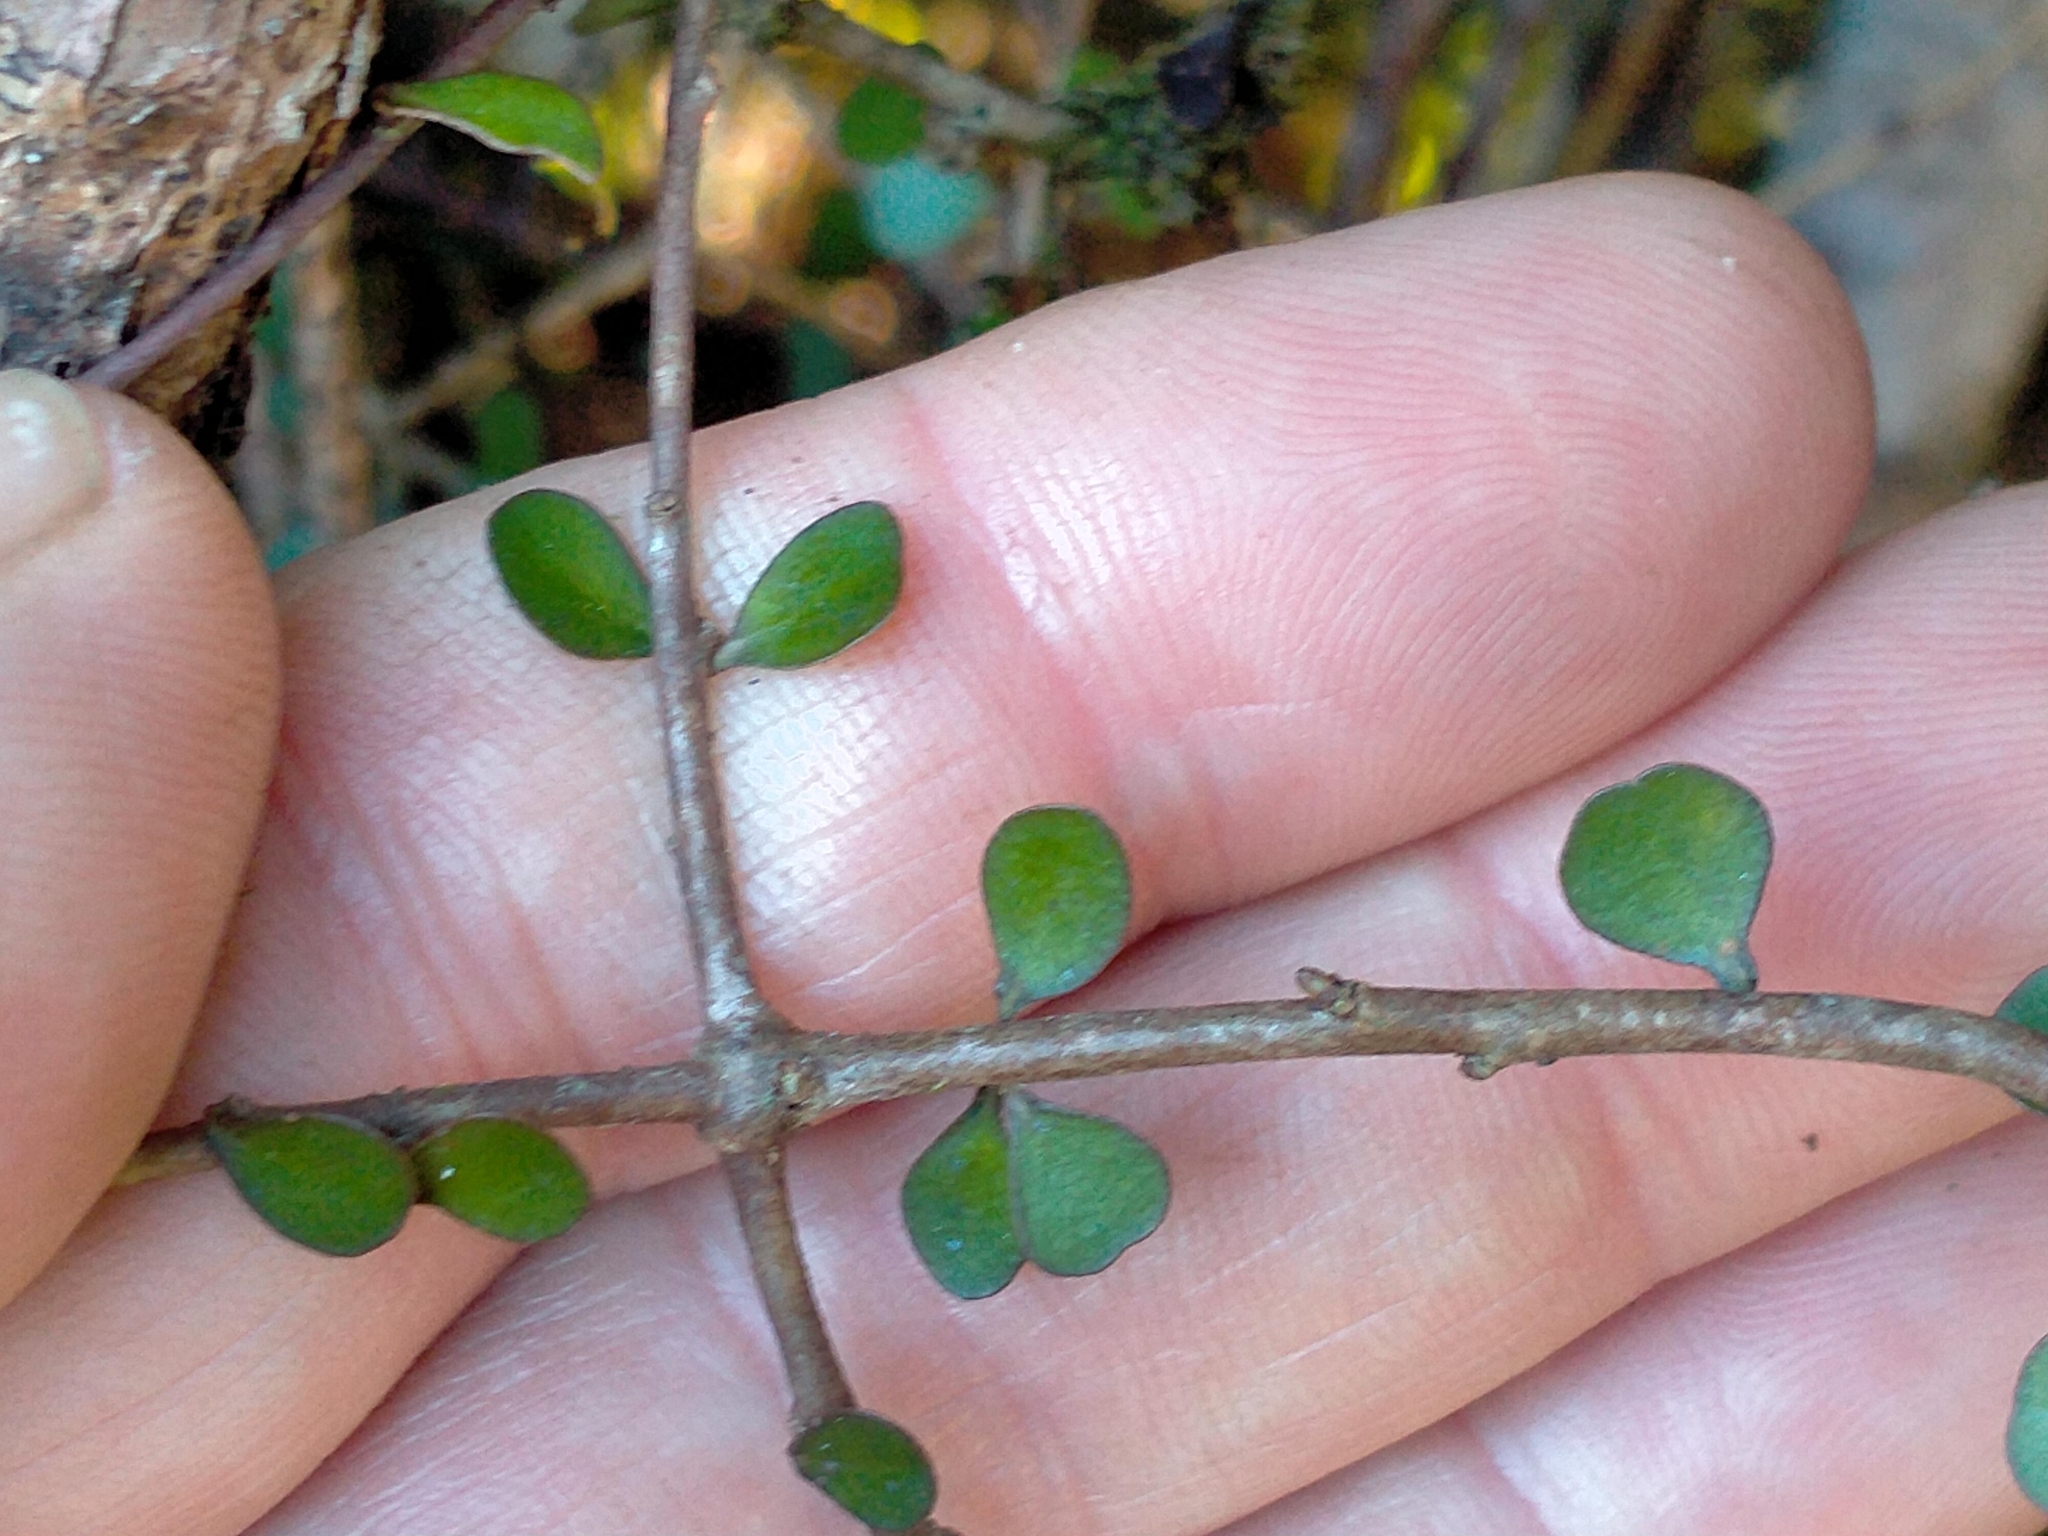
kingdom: Plantae
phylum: Tracheophyta
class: Magnoliopsida
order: Apiales
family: Pittosporaceae
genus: Pittosporum
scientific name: Pittosporum obcordatum
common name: Heart-leaved kohuhu
